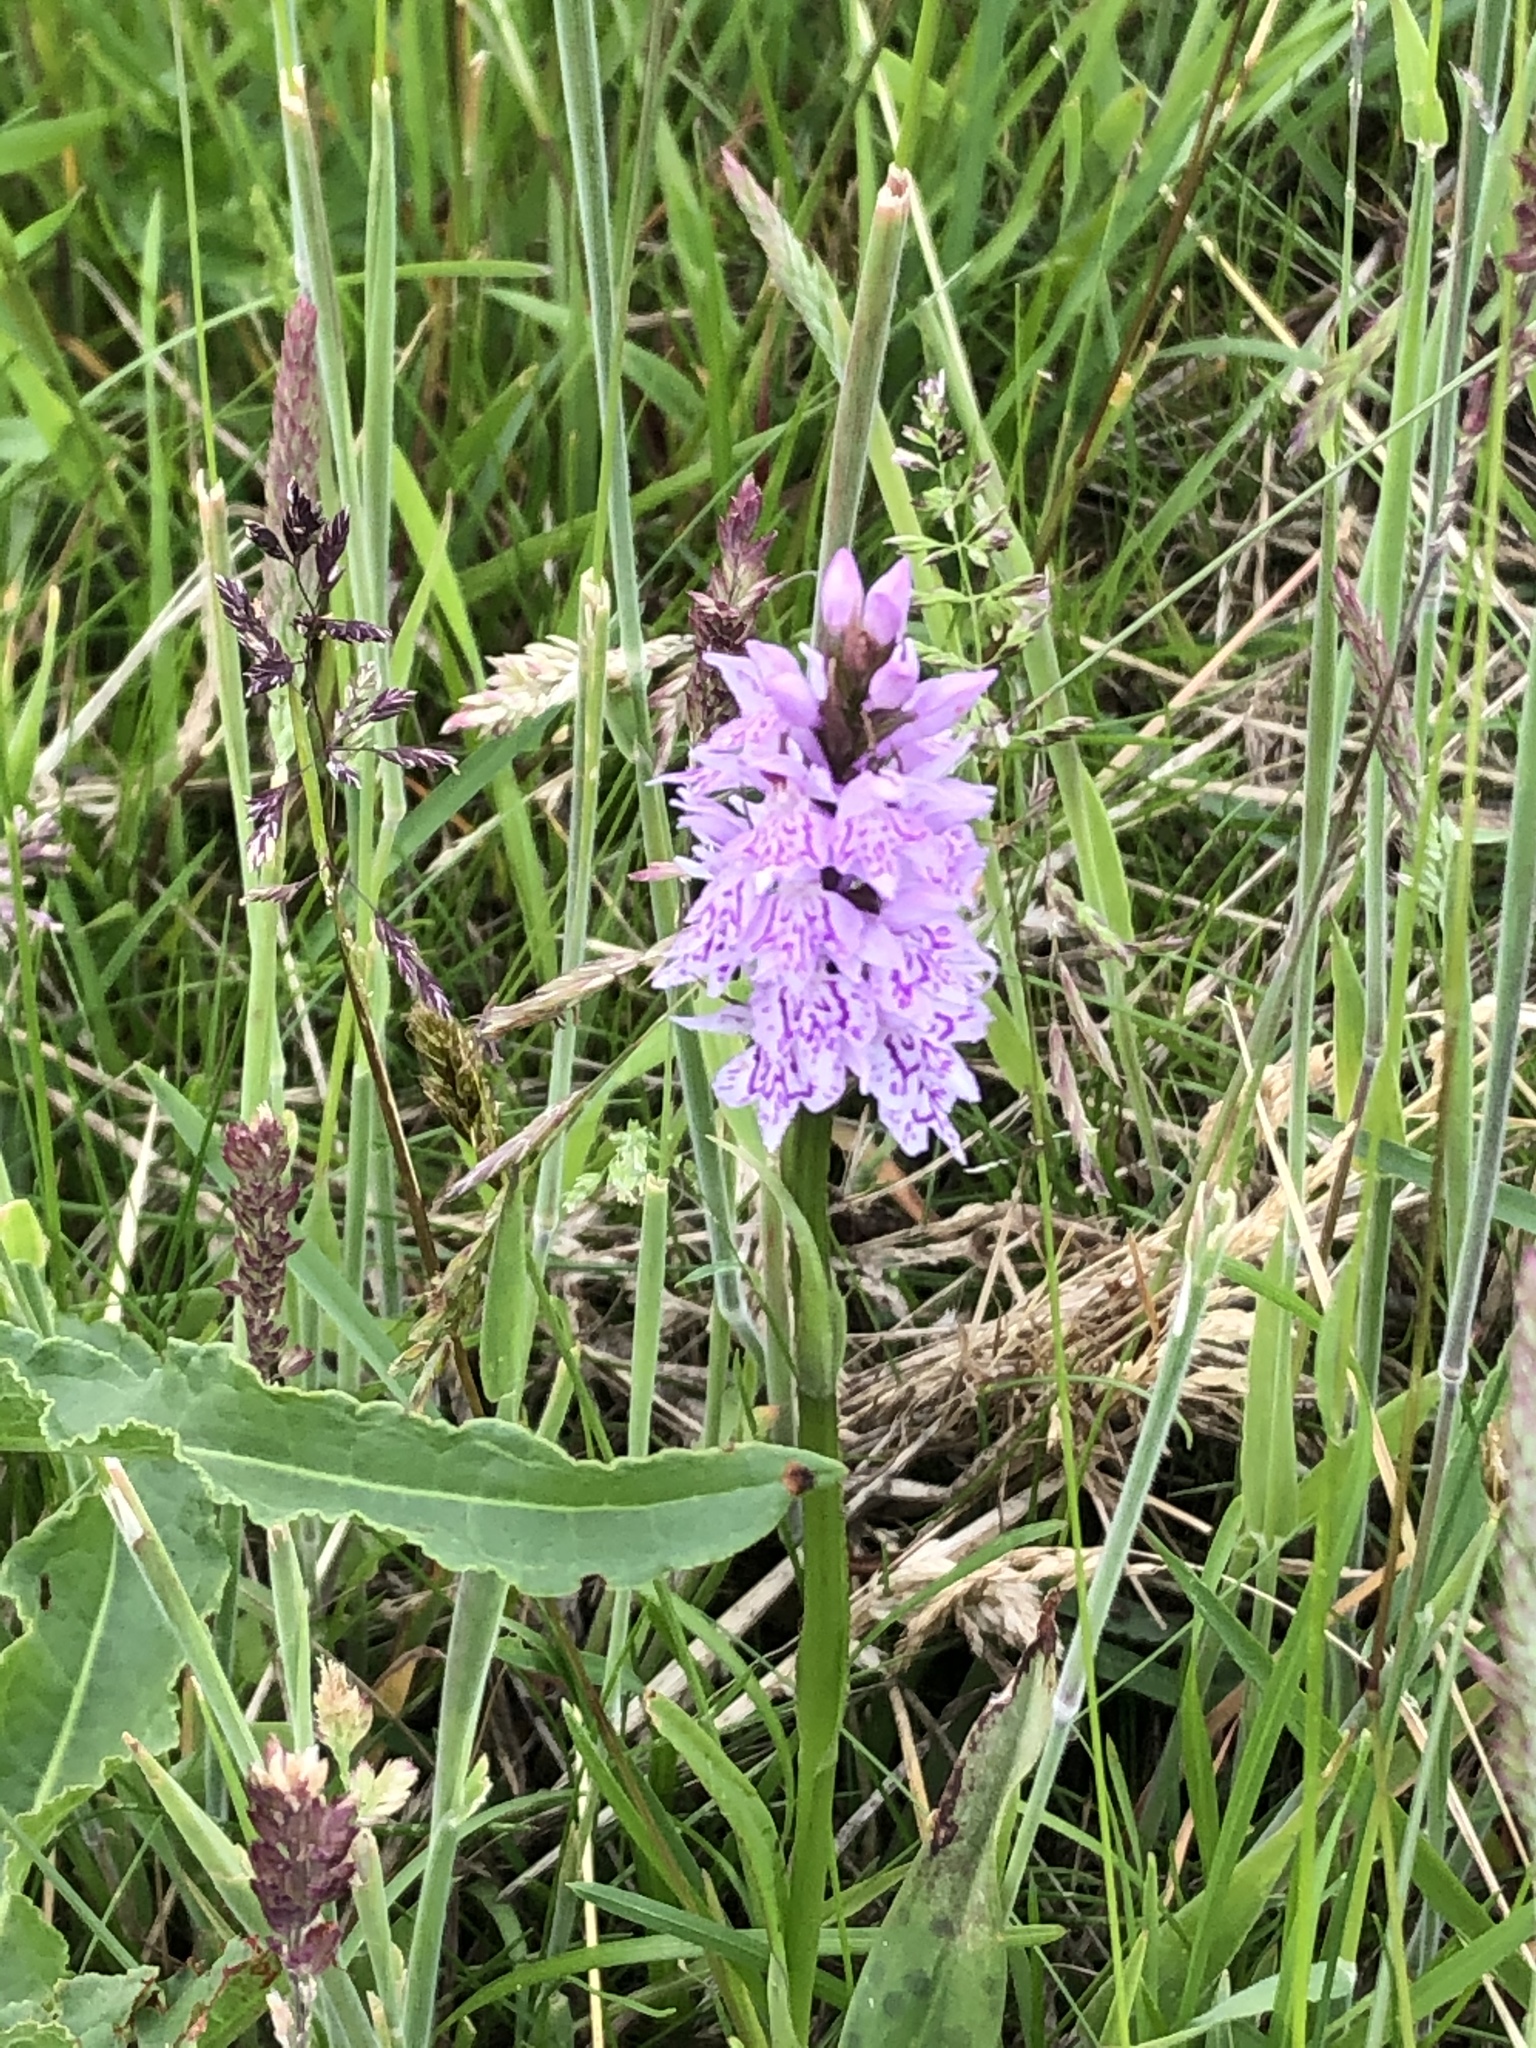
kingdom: Plantae
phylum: Tracheophyta
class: Liliopsida
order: Asparagales
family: Orchidaceae
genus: Dactylorhiza
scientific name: Dactylorhiza maculata
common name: Heath spotted-orchid
